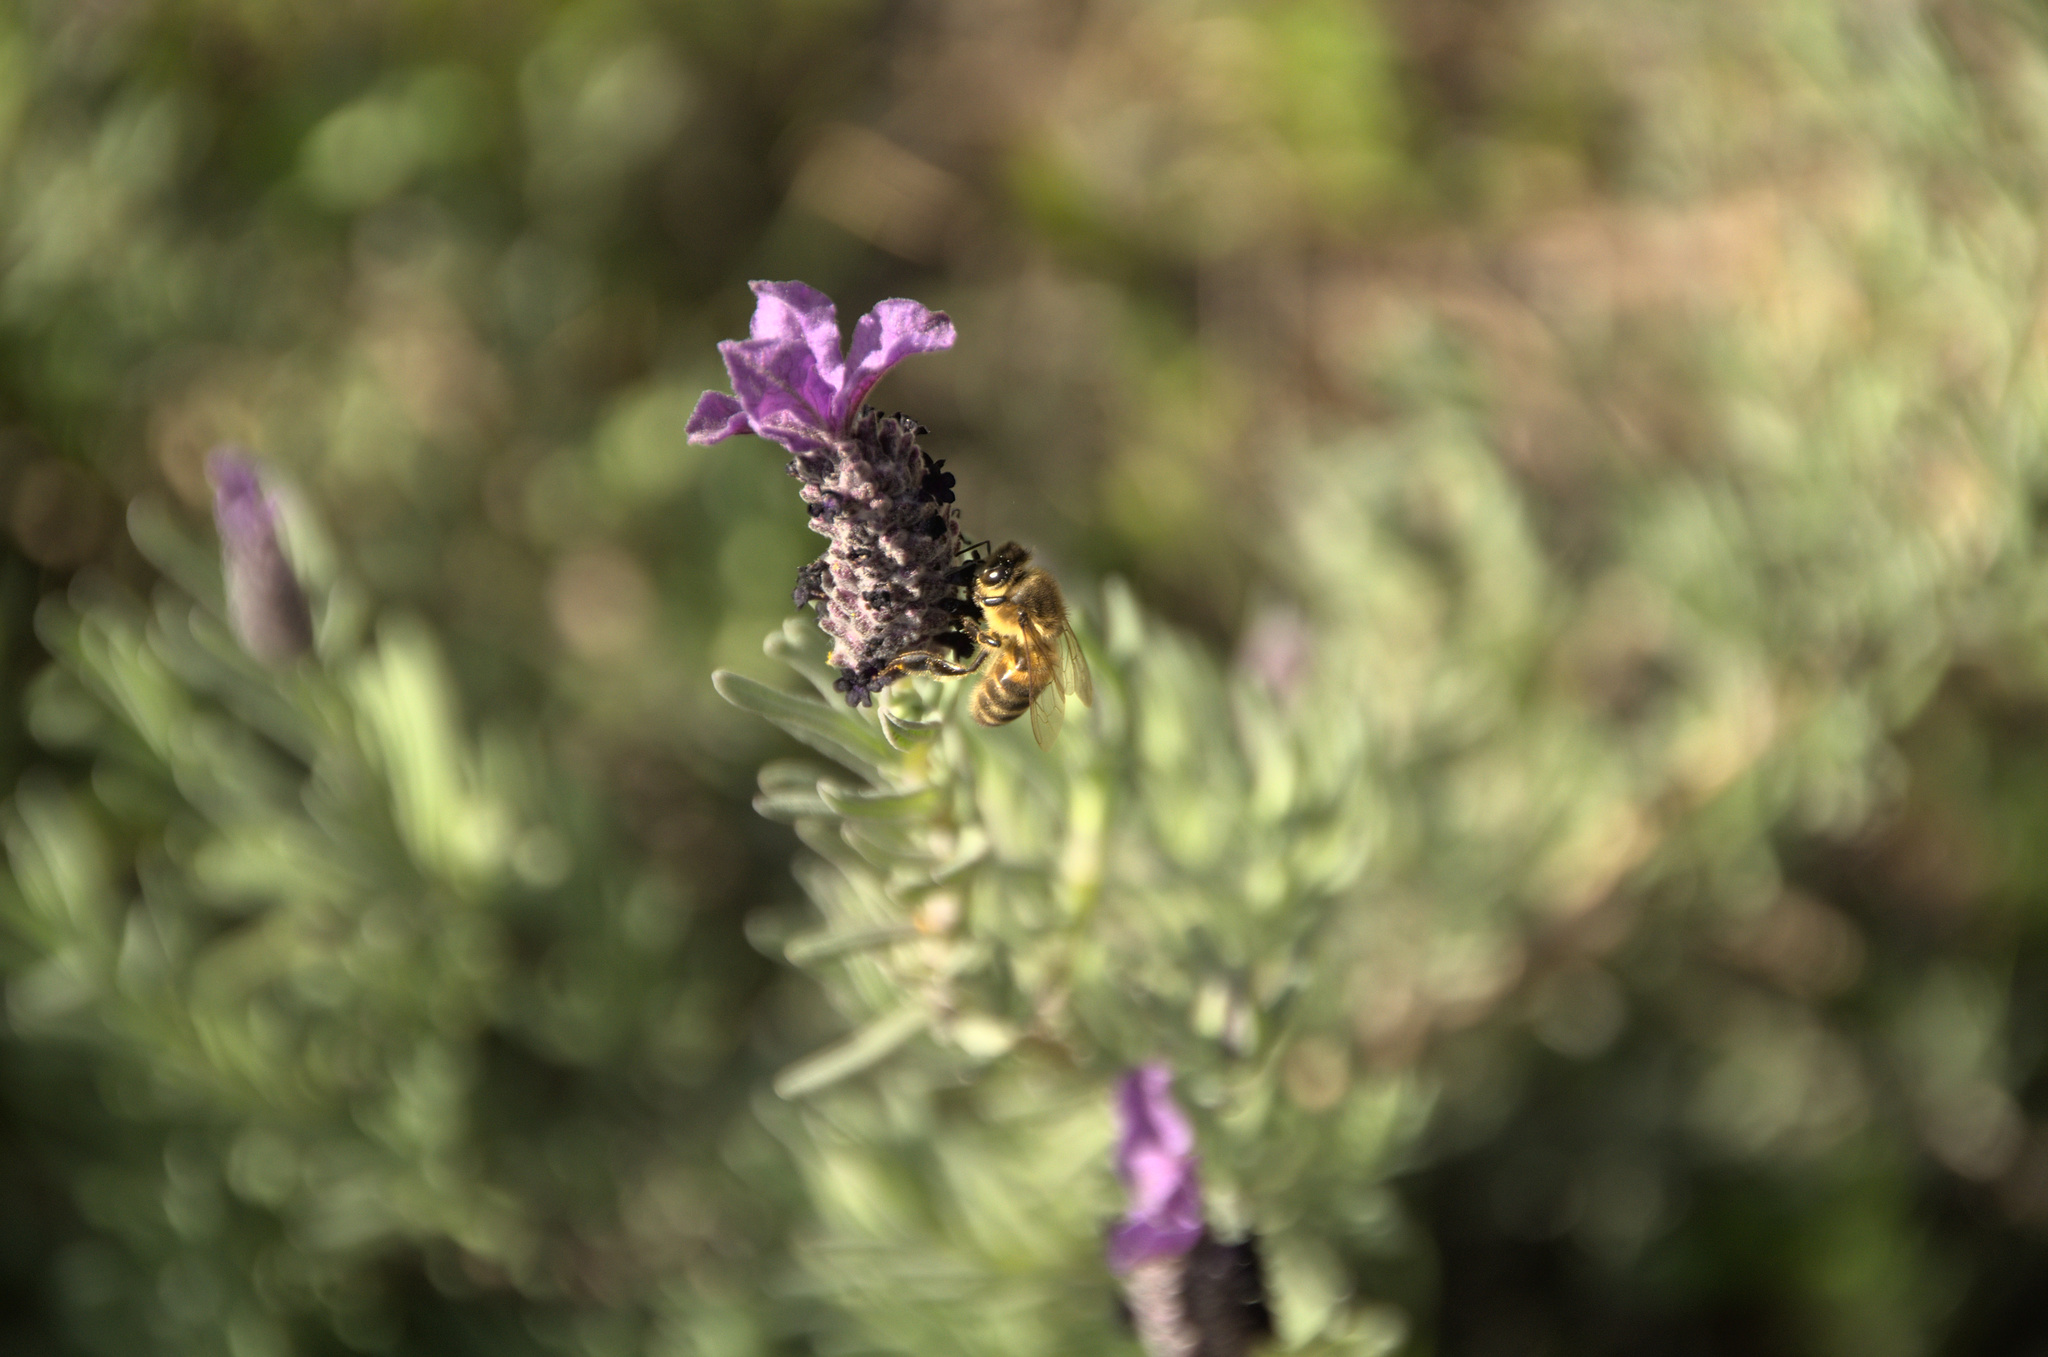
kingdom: Animalia
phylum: Arthropoda
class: Insecta
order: Hymenoptera
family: Apidae
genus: Apis
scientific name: Apis mellifera
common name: Honey bee
